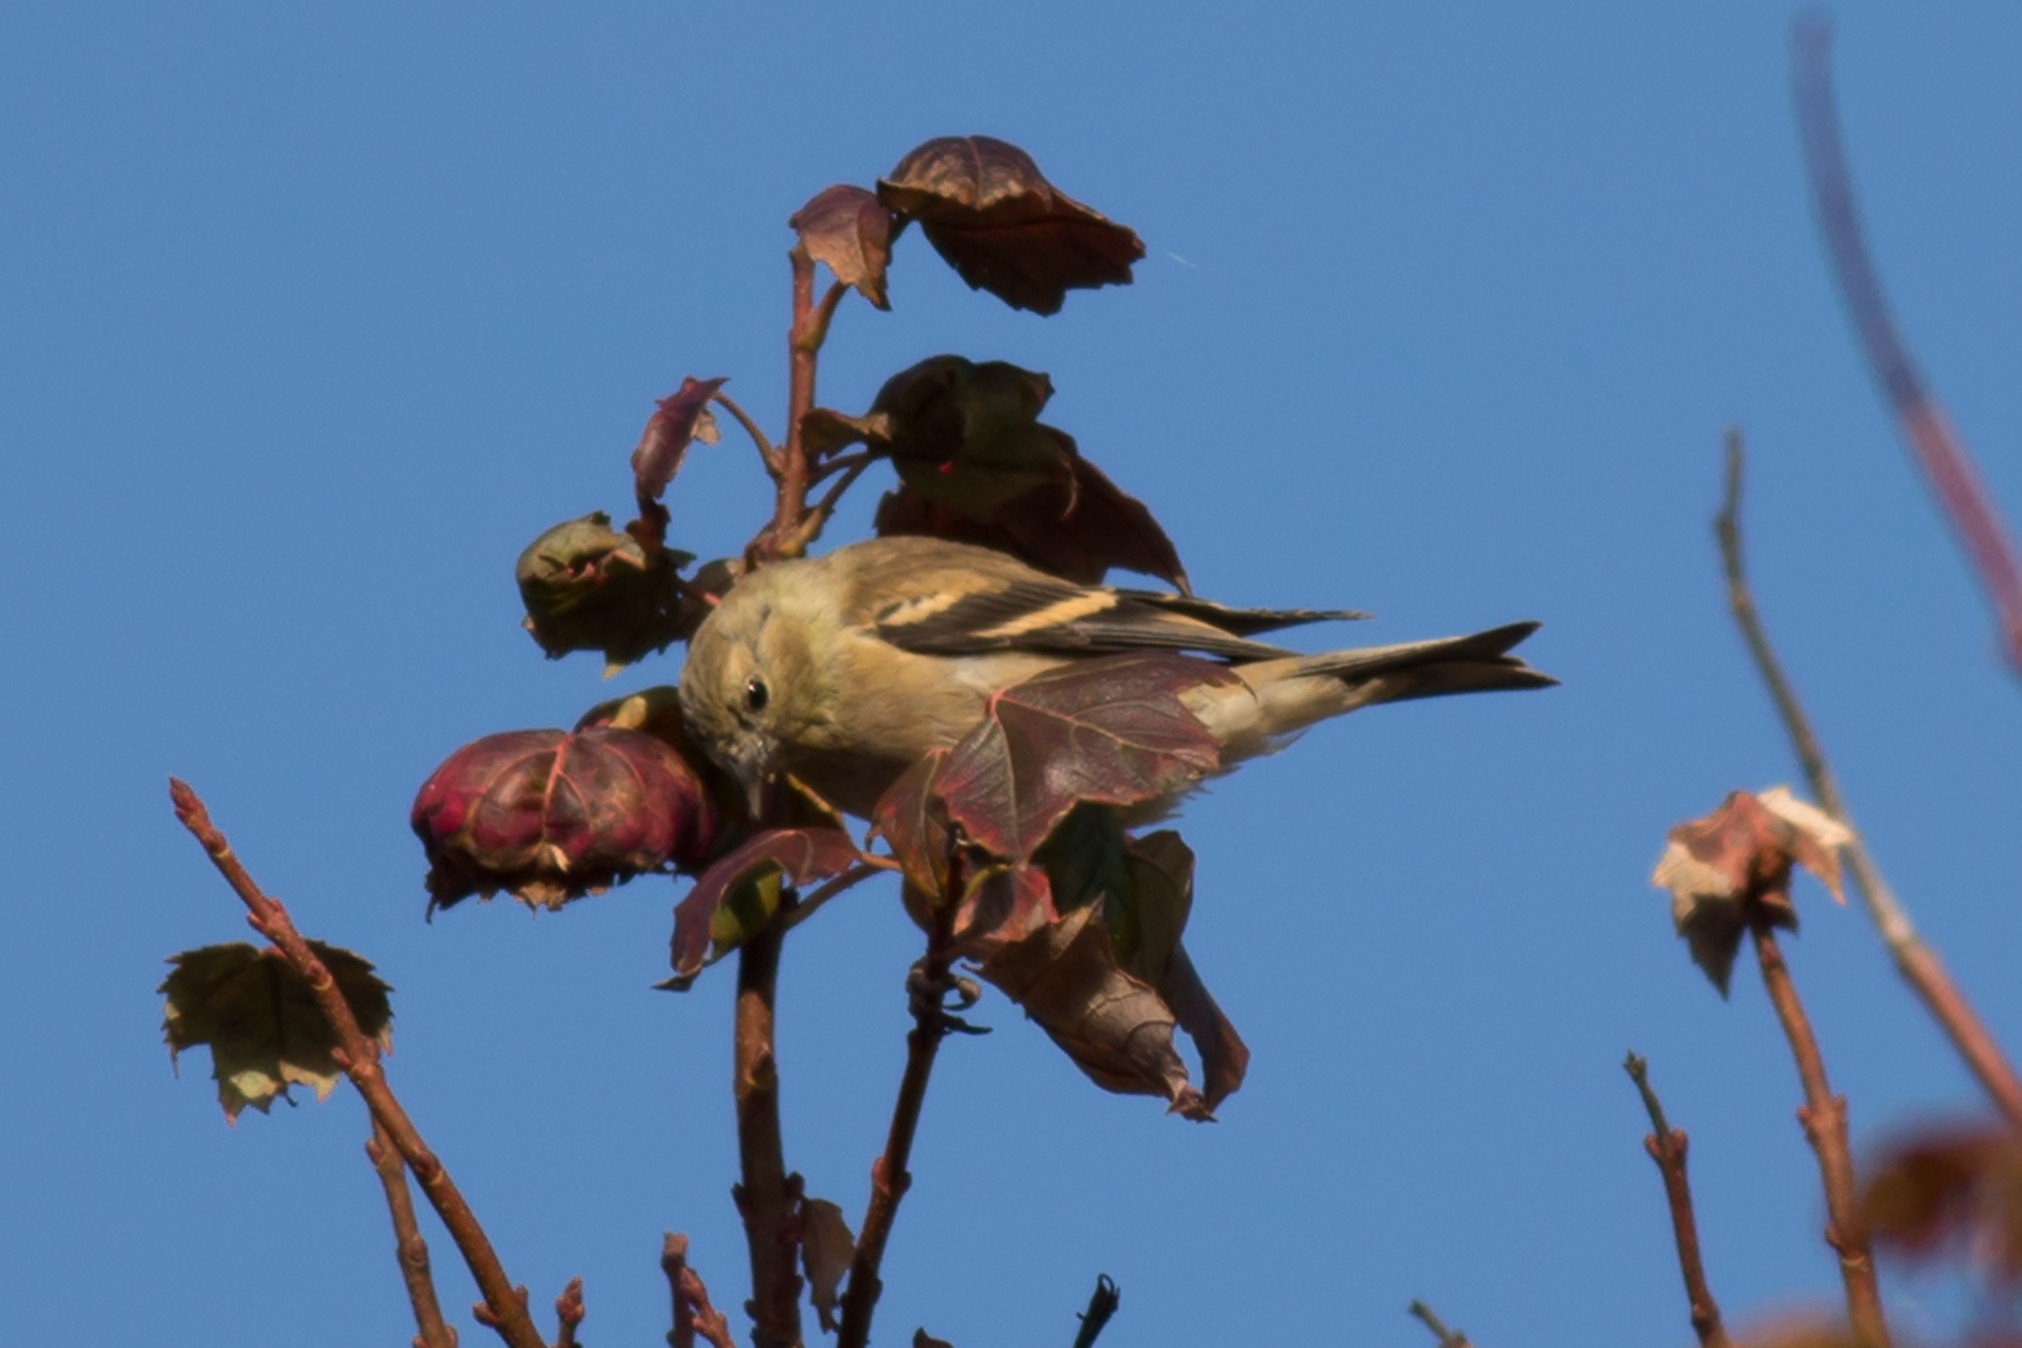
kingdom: Animalia
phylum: Chordata
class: Aves
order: Passeriformes
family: Fringillidae
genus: Spinus
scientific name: Spinus tristis
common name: American goldfinch
